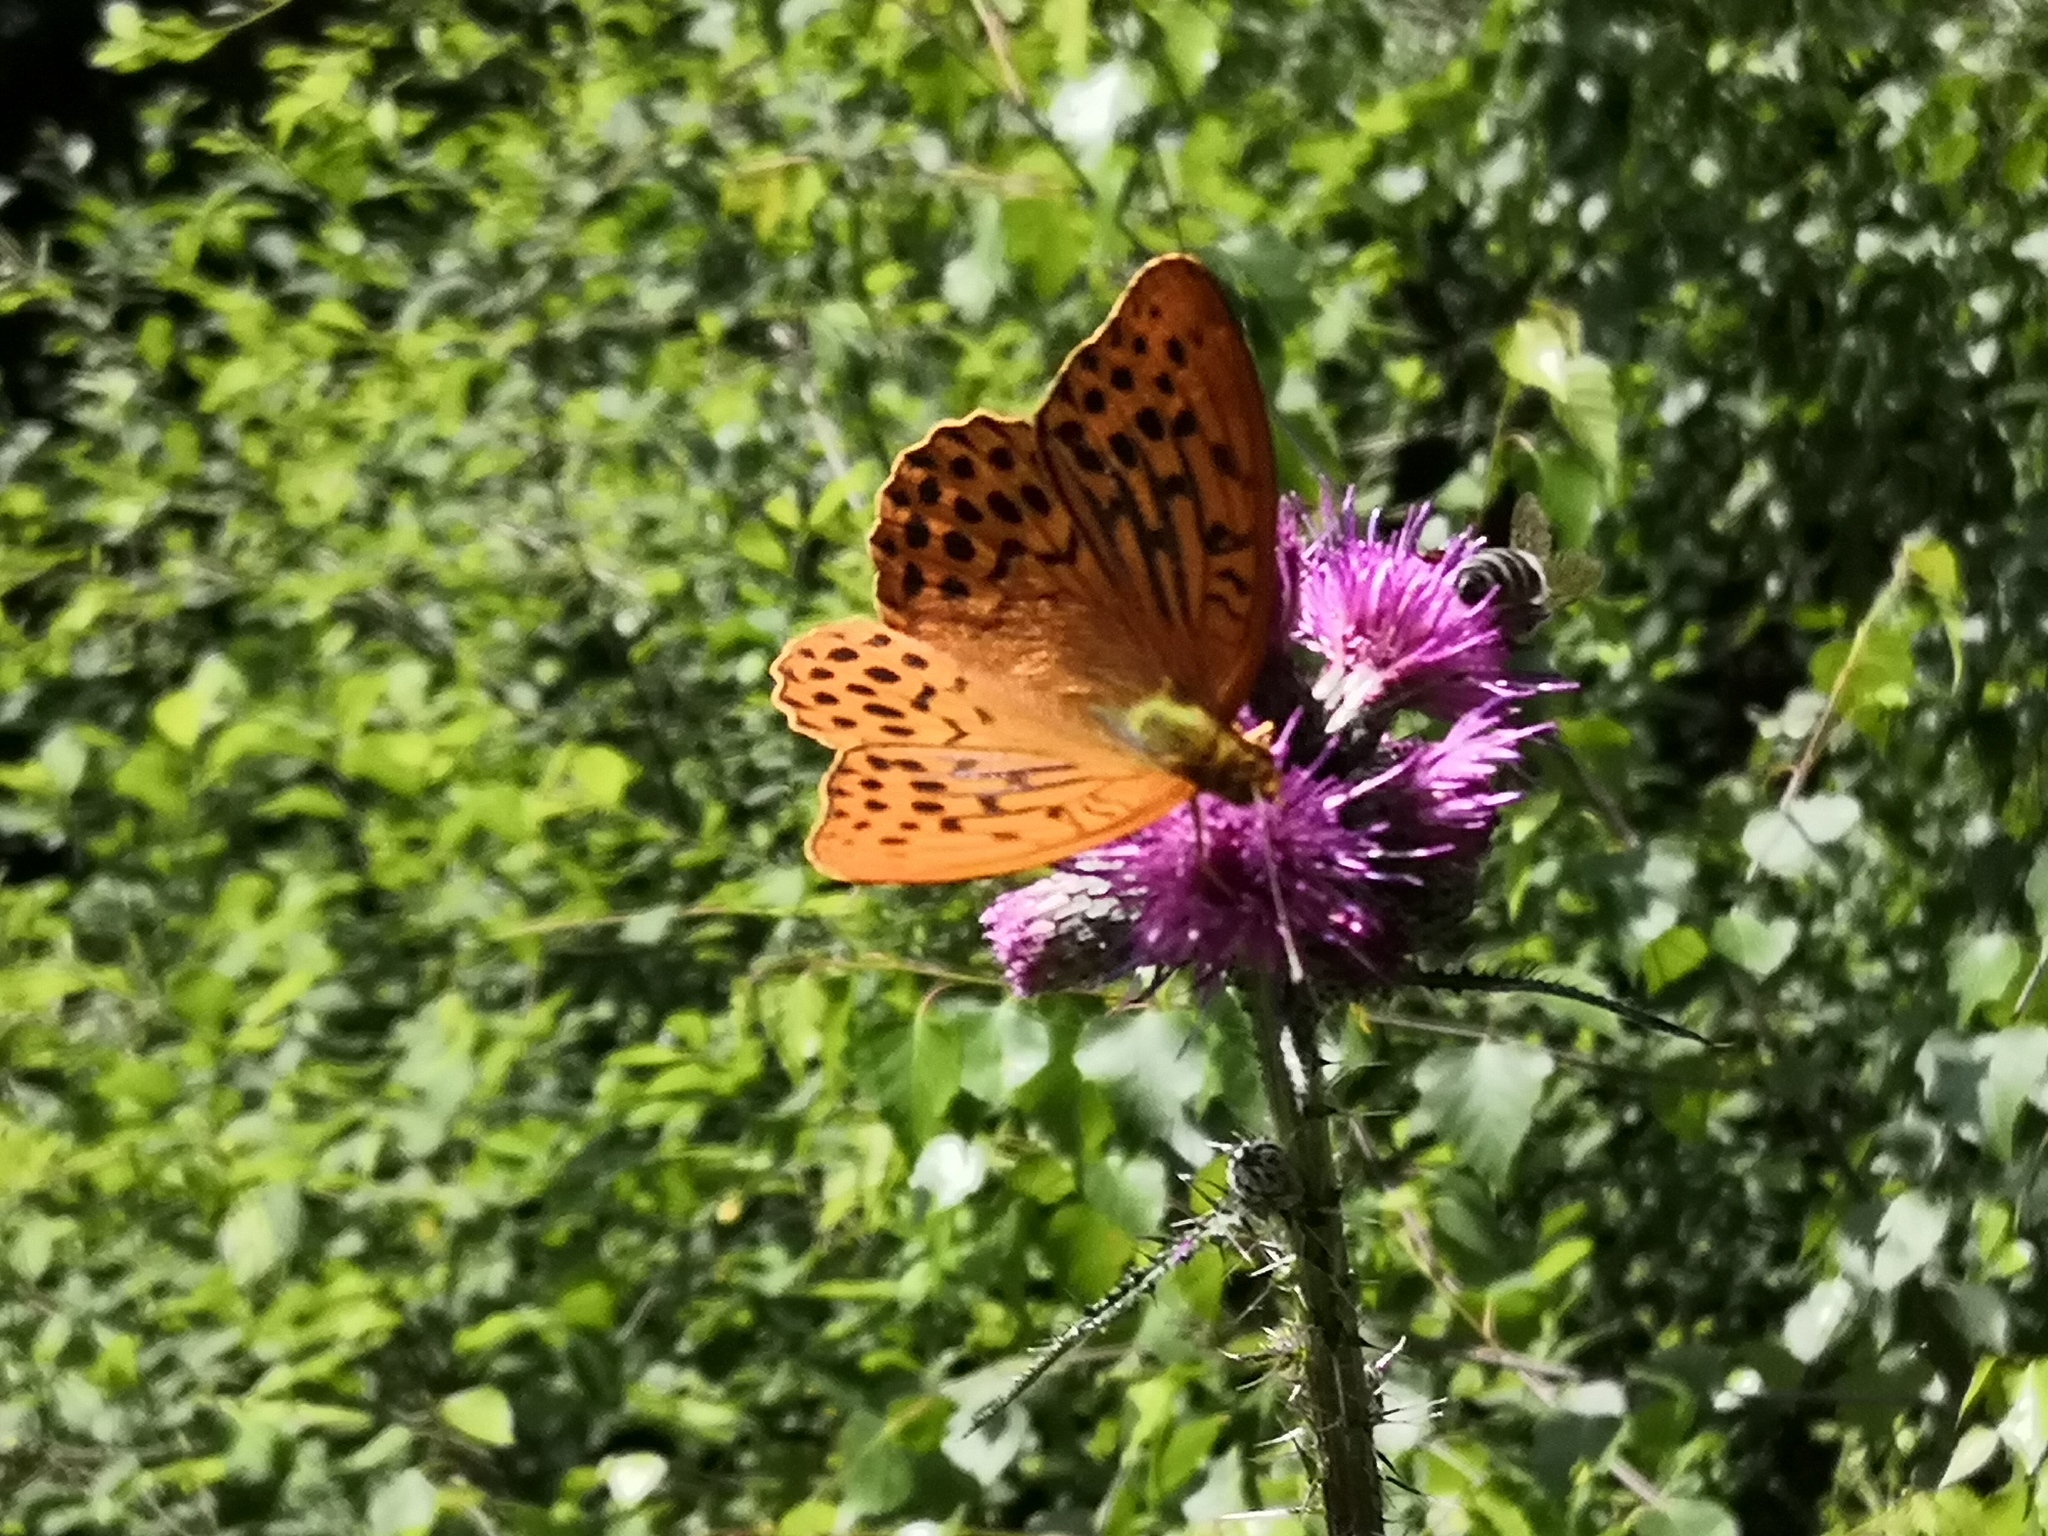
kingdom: Animalia
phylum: Arthropoda
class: Insecta
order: Lepidoptera
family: Nymphalidae
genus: Argynnis
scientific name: Argynnis paphia
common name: Silver-washed fritillary
